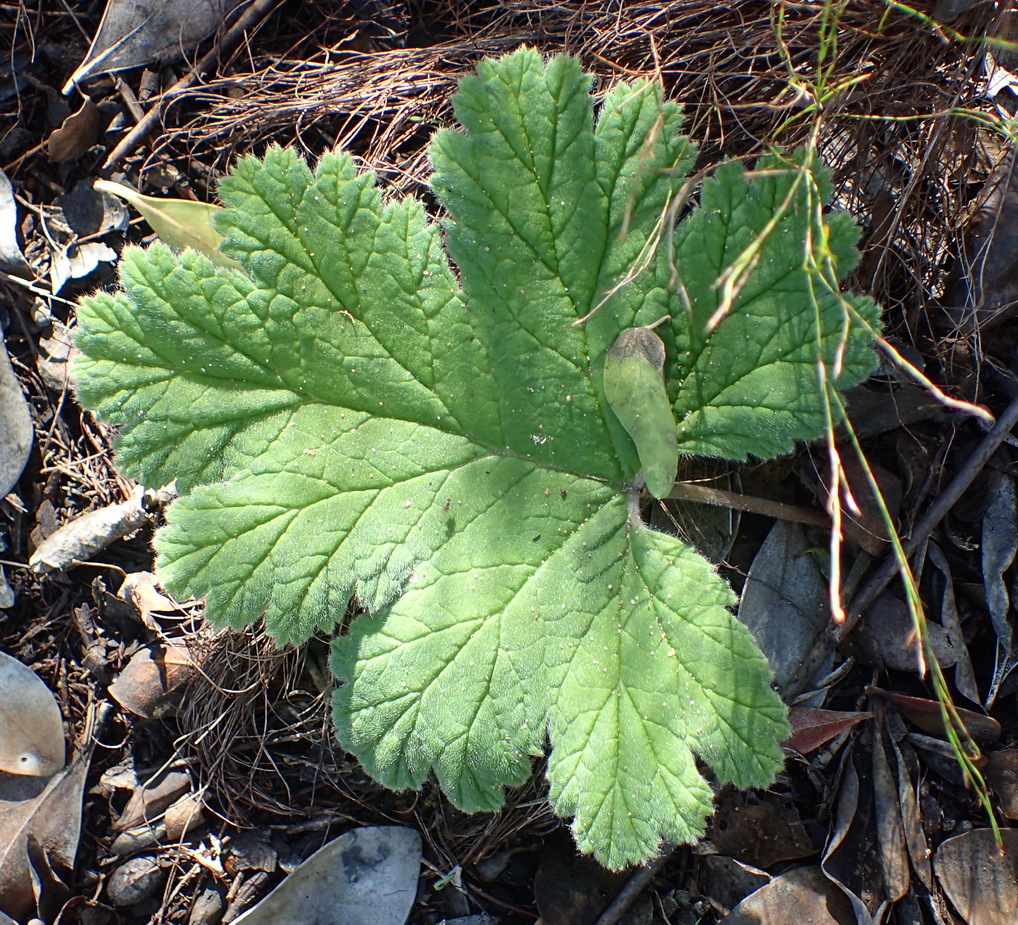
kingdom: Plantae
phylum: Tracheophyta
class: Magnoliopsida
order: Geraniales
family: Geraniaceae
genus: Pelargonium
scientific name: Pelargonium lobatum
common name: Vine-leaf pelargonium
